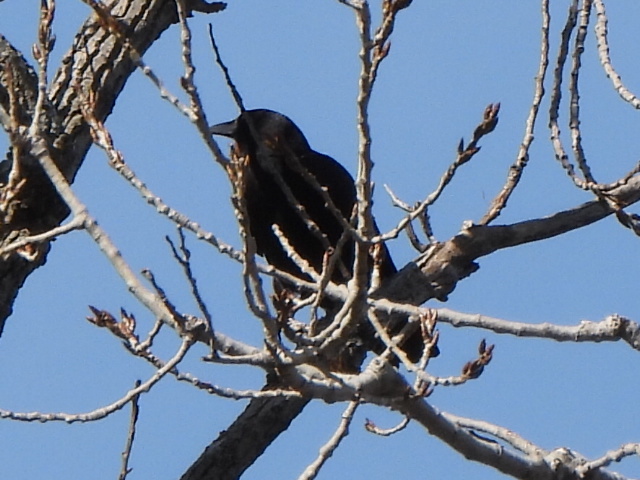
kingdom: Animalia
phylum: Chordata
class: Aves
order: Passeriformes
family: Corvidae
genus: Corvus
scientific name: Corvus brachyrhynchos
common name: American crow
